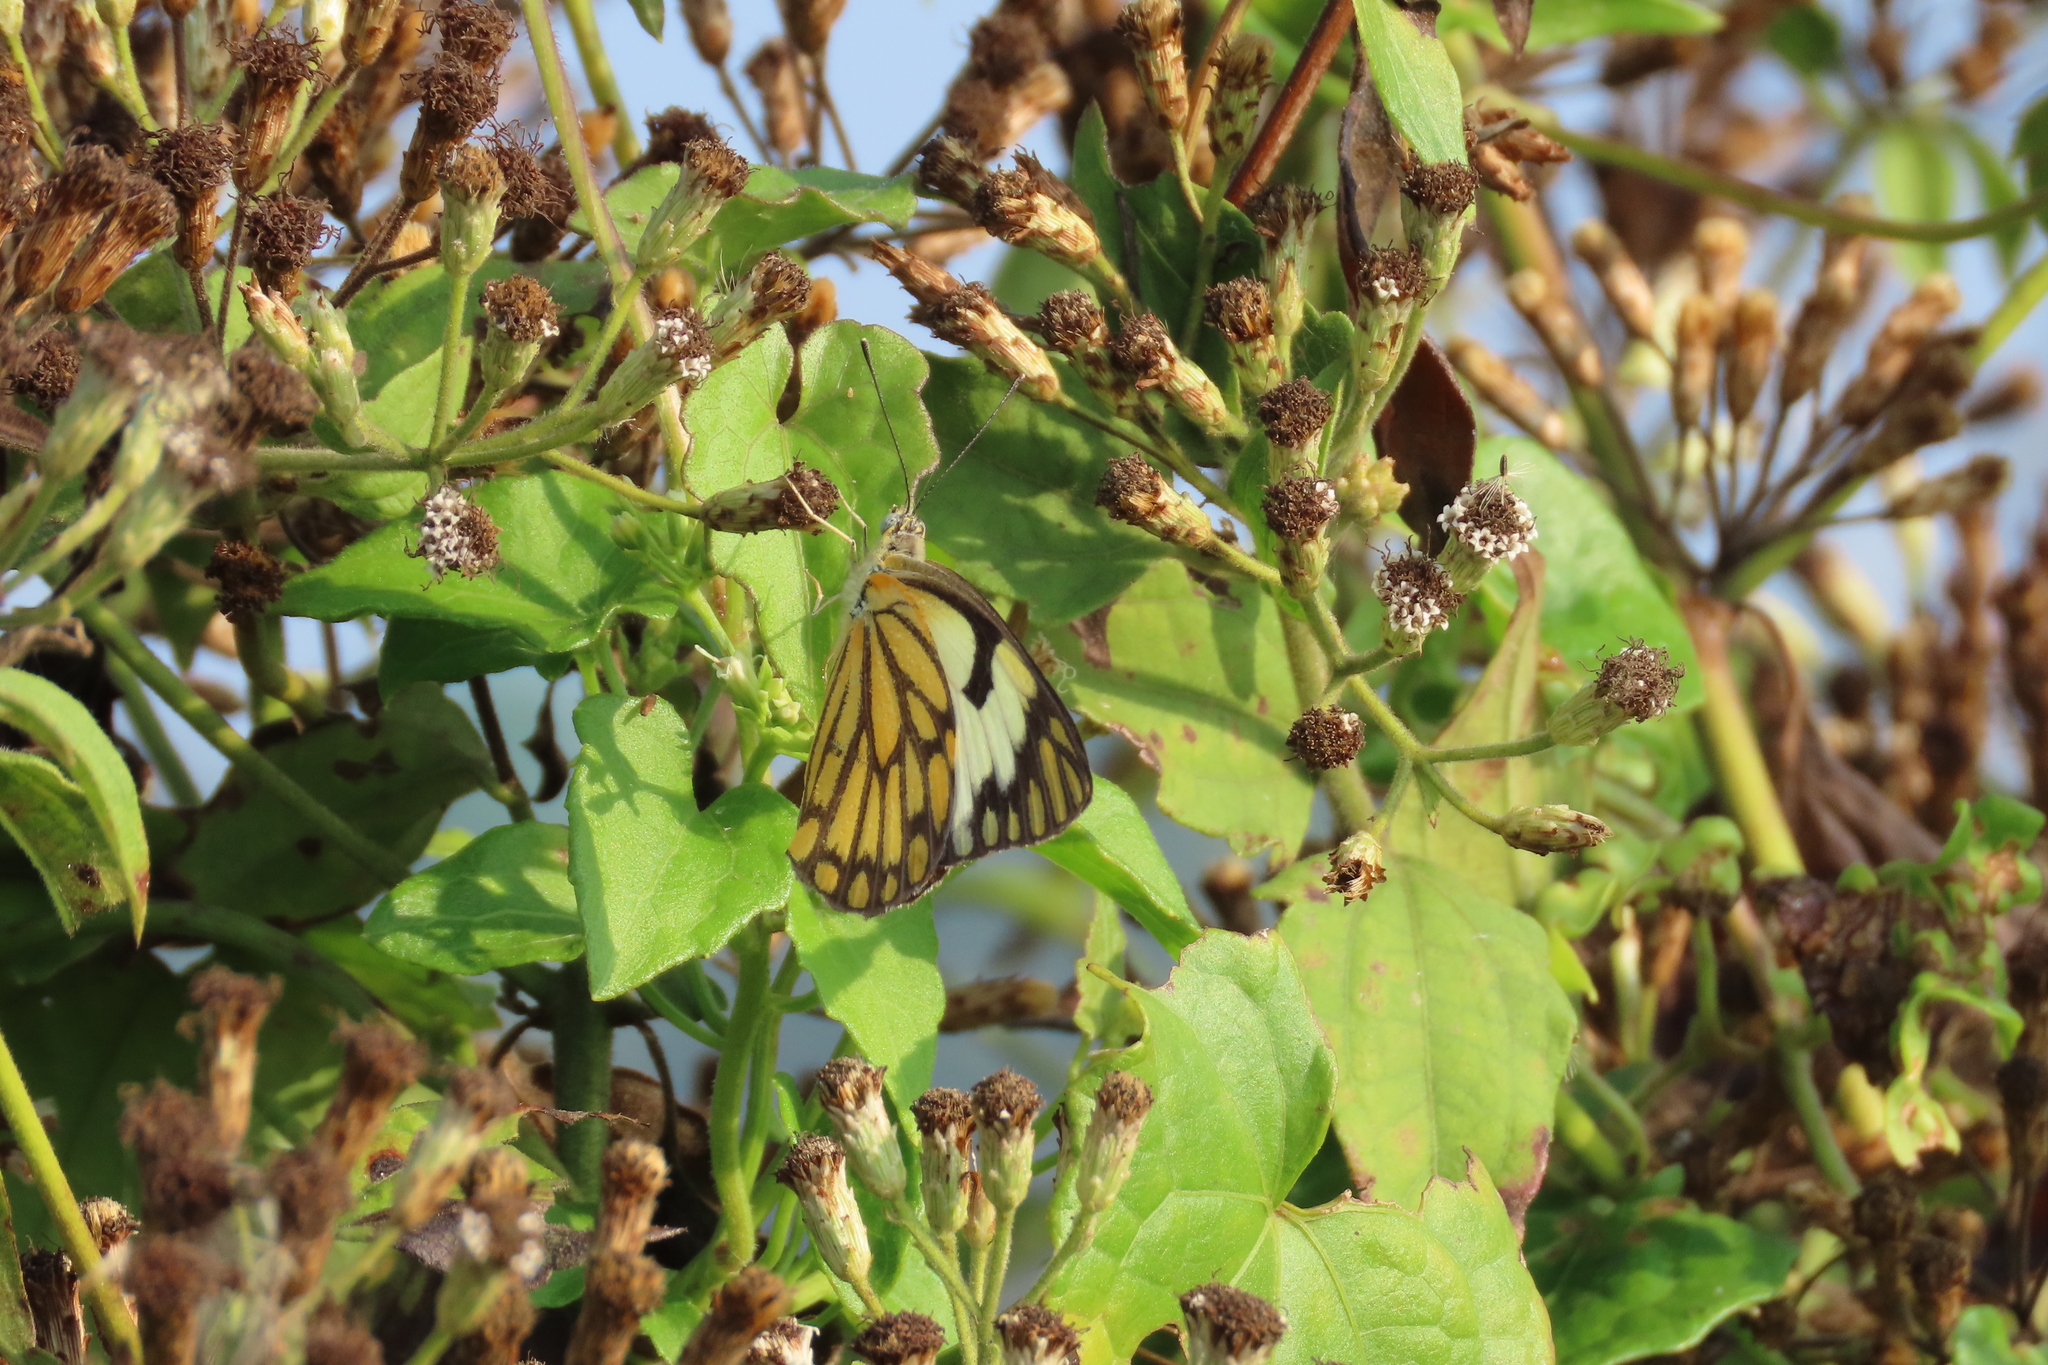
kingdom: Animalia
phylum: Arthropoda
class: Insecta
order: Lepidoptera
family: Pieridae
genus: Belenois
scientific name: Belenois aurota
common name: Brown-veined white
